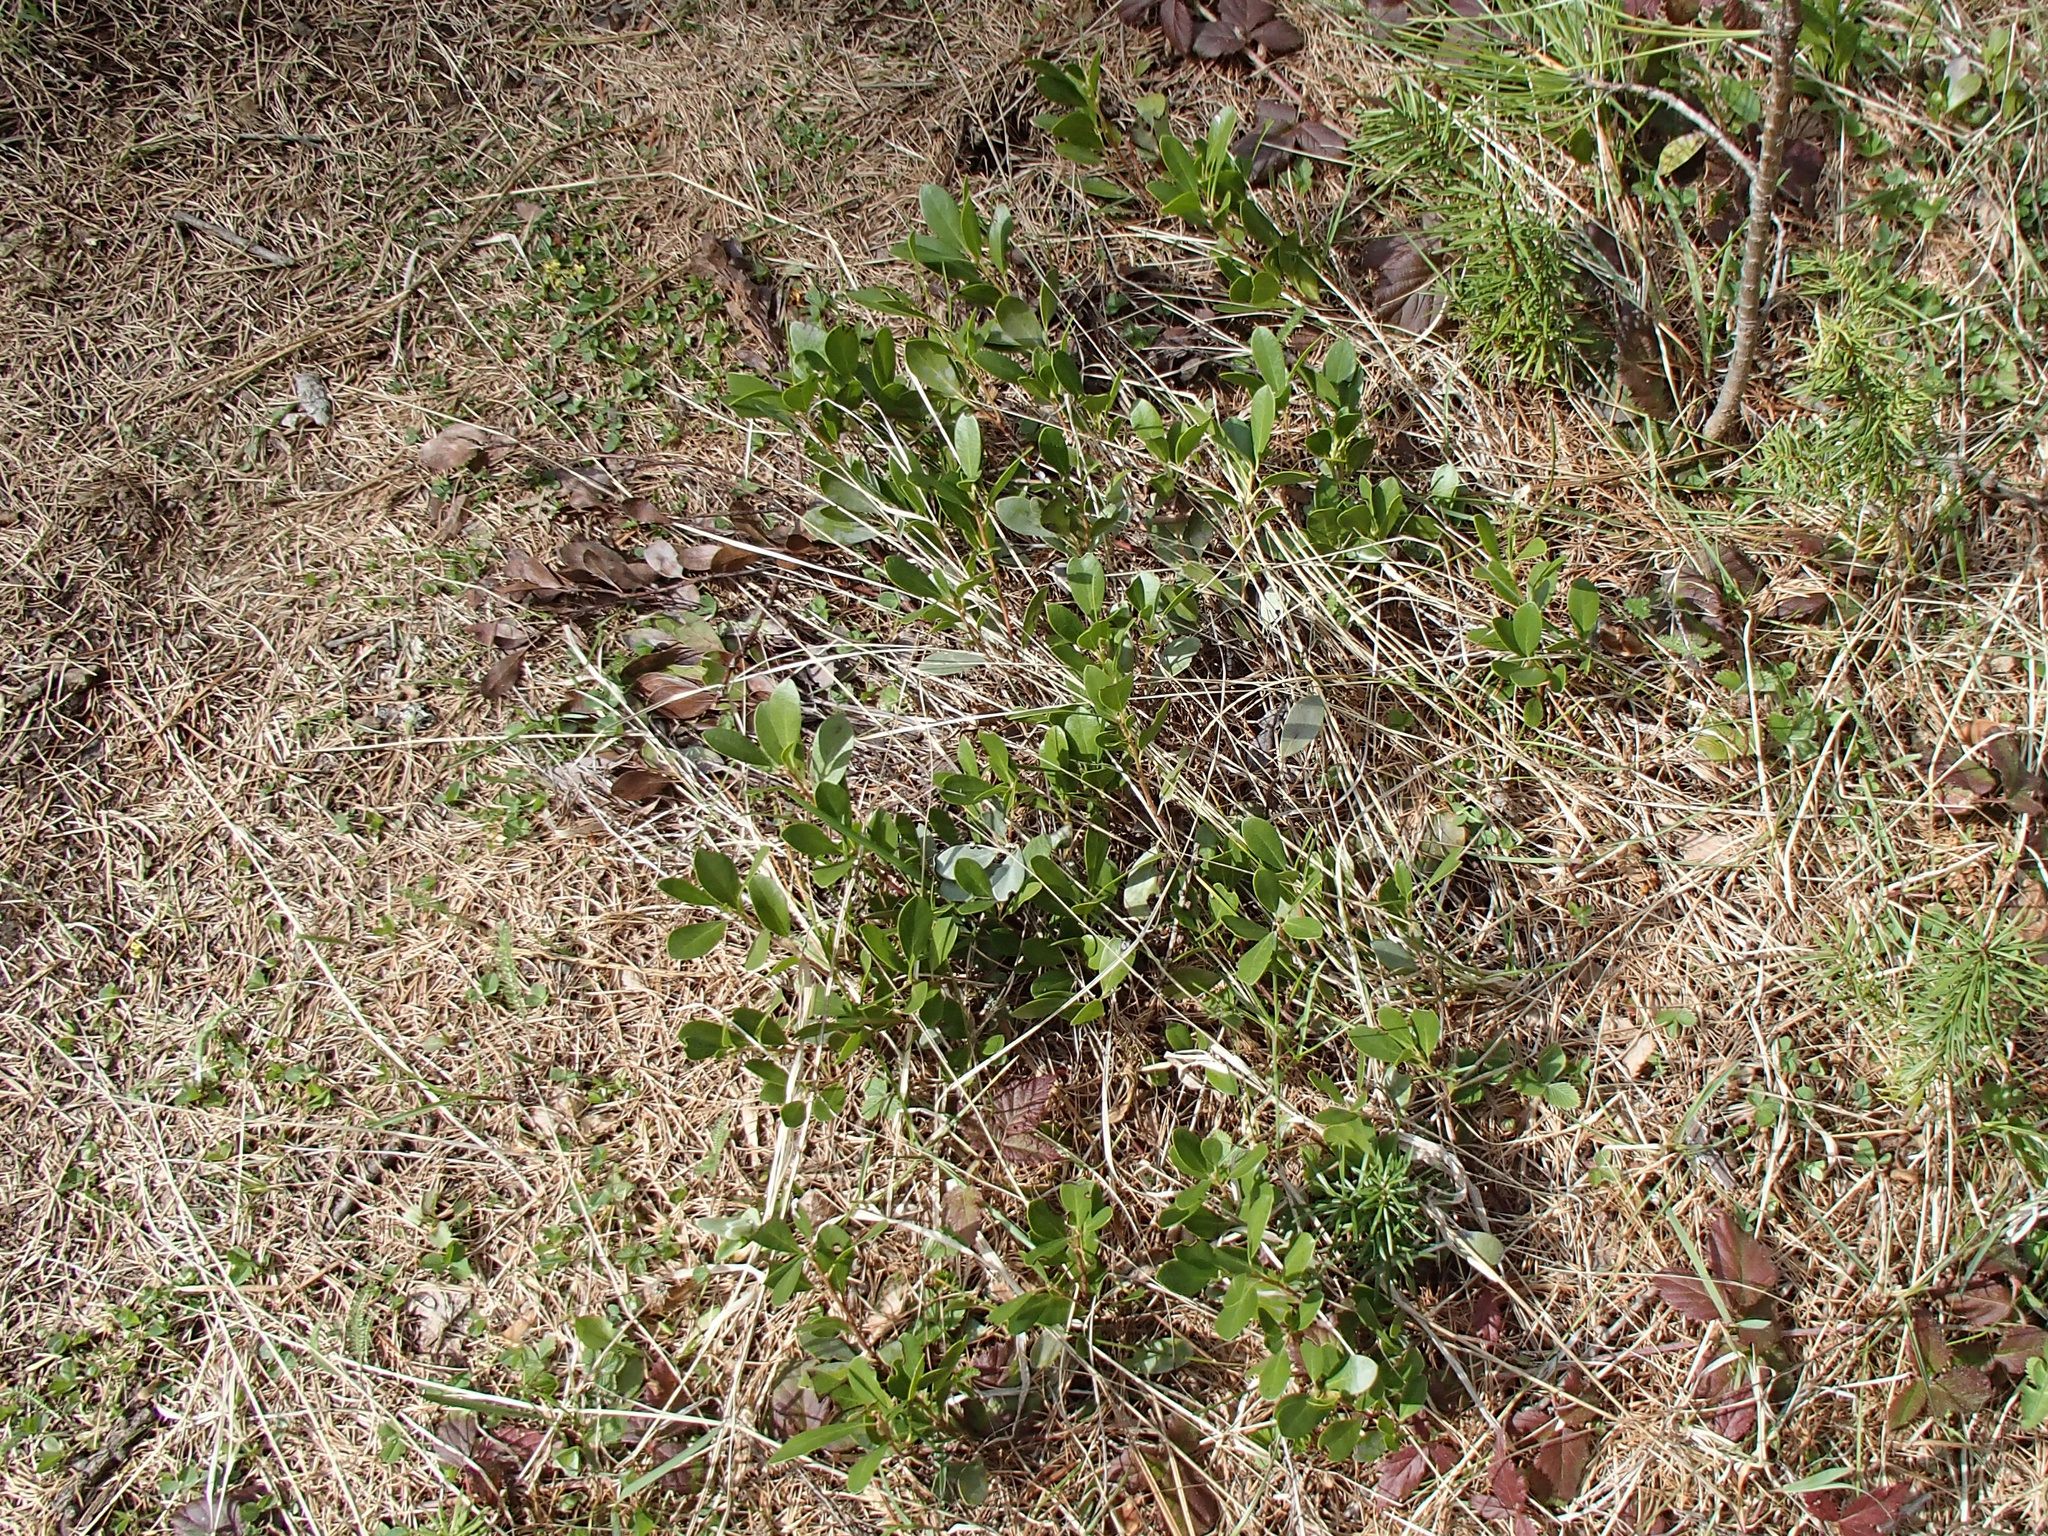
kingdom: Plantae
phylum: Tracheophyta
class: Magnoliopsida
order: Ericales
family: Ericaceae
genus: Arctostaphylos
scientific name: Arctostaphylos uva-ursi
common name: Bearberry
